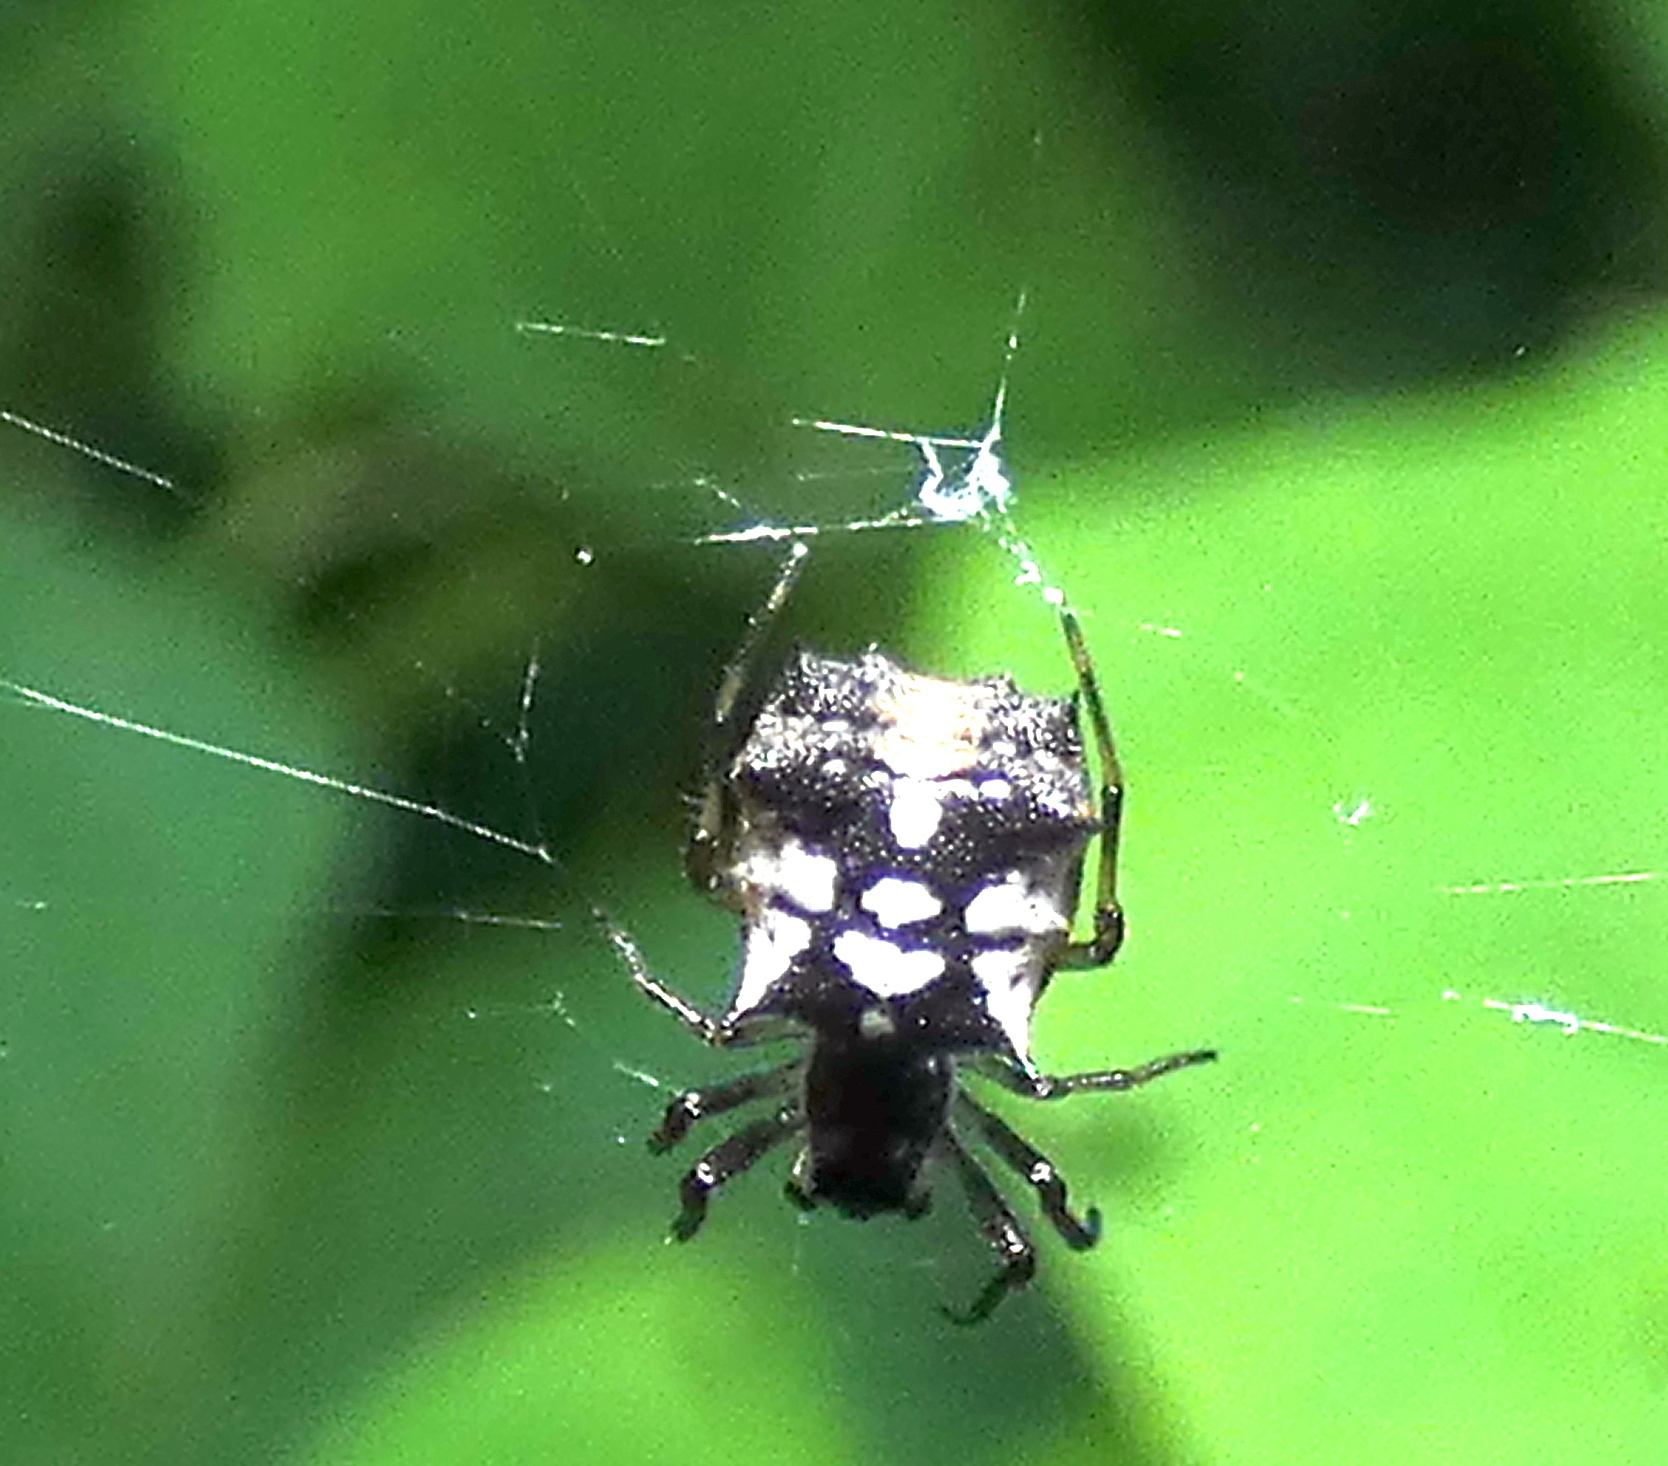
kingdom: Animalia
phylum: Arthropoda
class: Arachnida
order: Araneae
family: Araneidae
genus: Micrathena
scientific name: Micrathena picta
